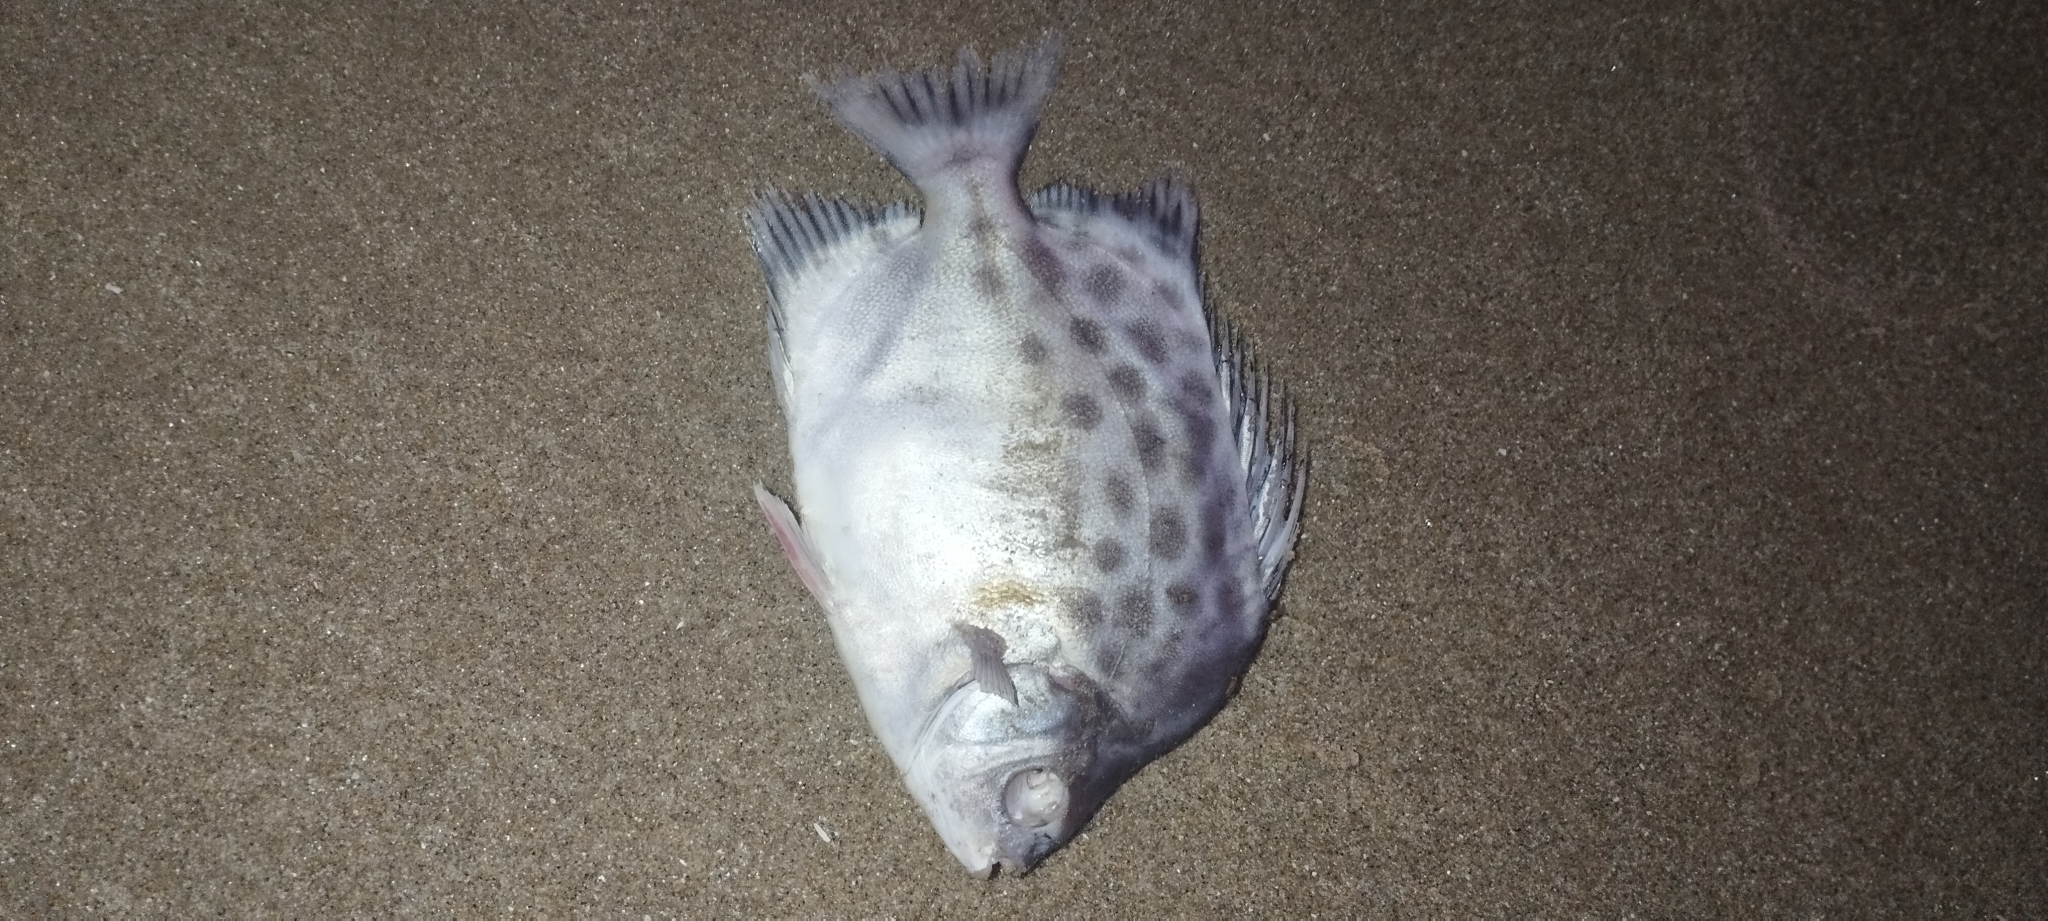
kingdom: Animalia
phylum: Chordata
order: Perciformes
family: Scatophagidae
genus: Scatophagus
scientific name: Scatophagus argus
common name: Spotted scat
